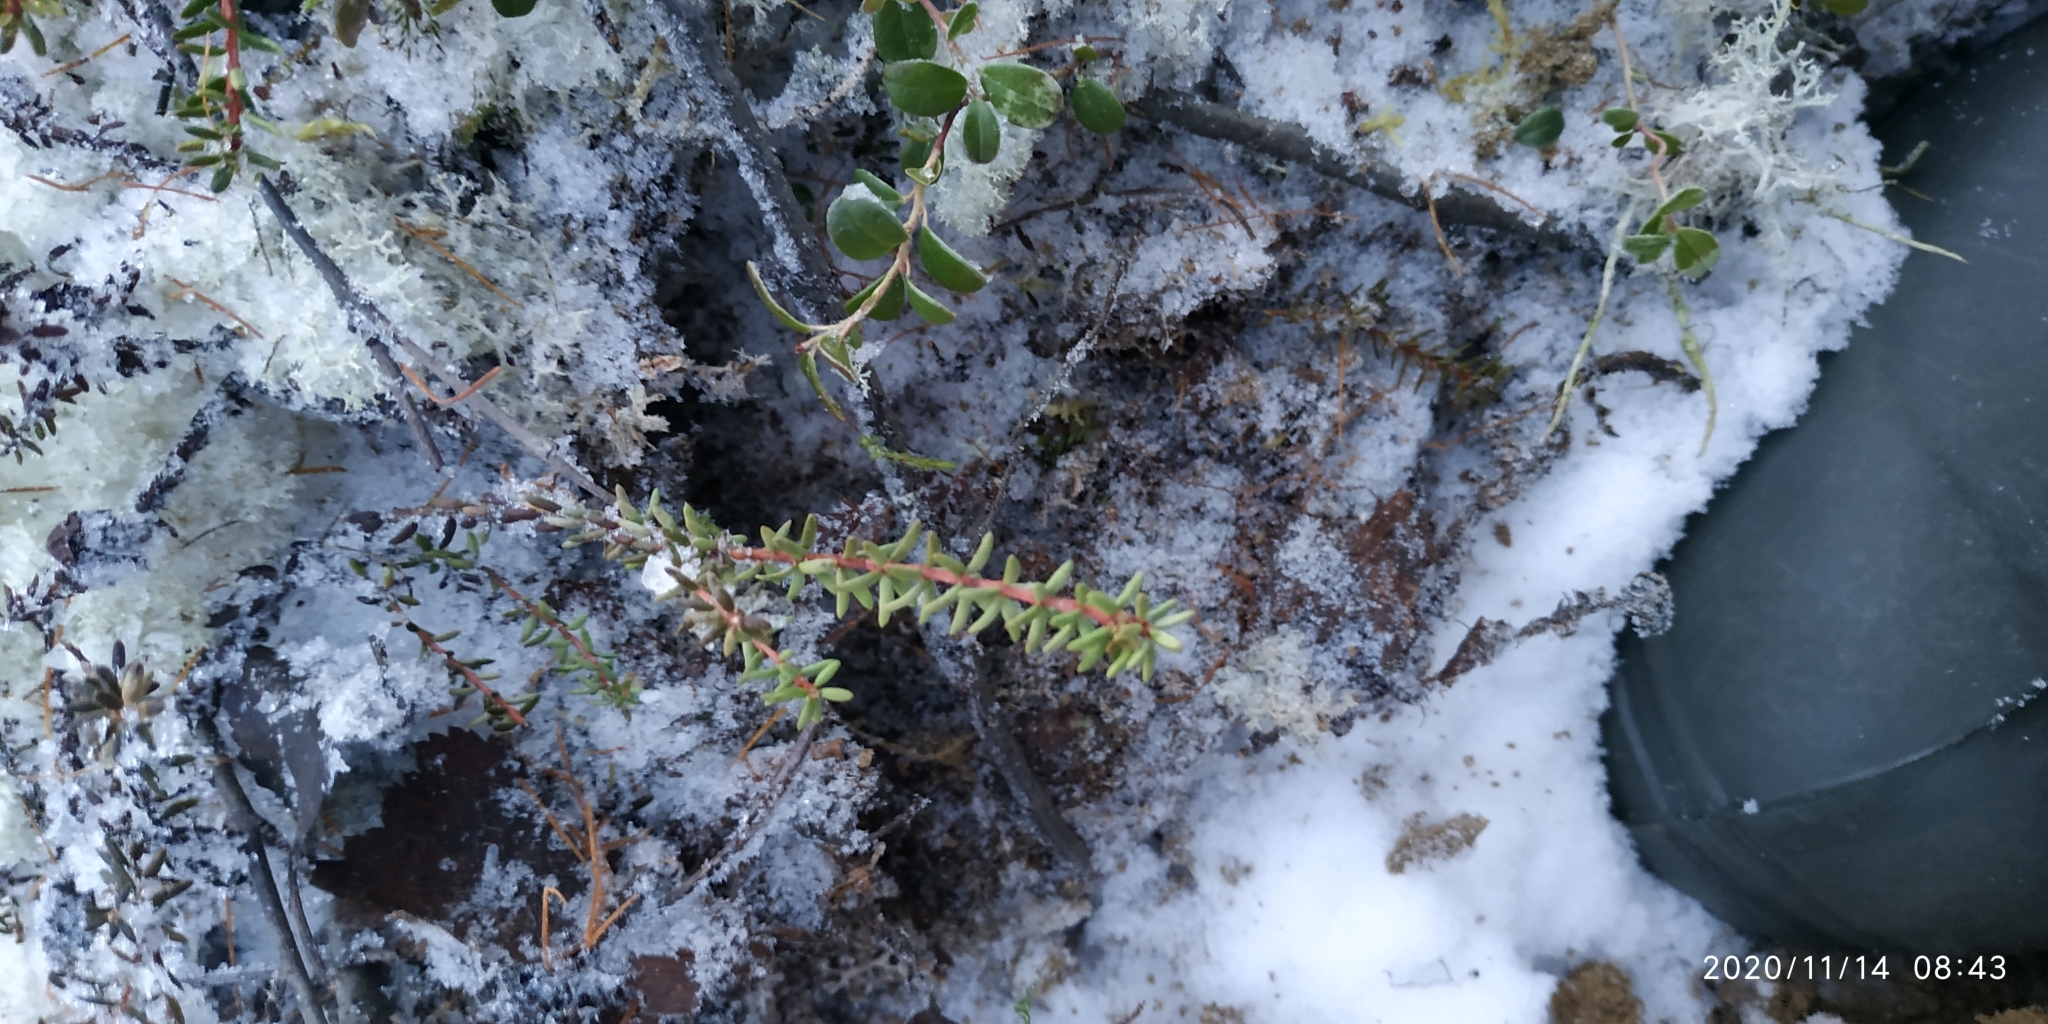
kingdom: Plantae
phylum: Tracheophyta
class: Magnoliopsida
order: Ericales
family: Ericaceae
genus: Empetrum
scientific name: Empetrum nigrum
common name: Black crowberry
